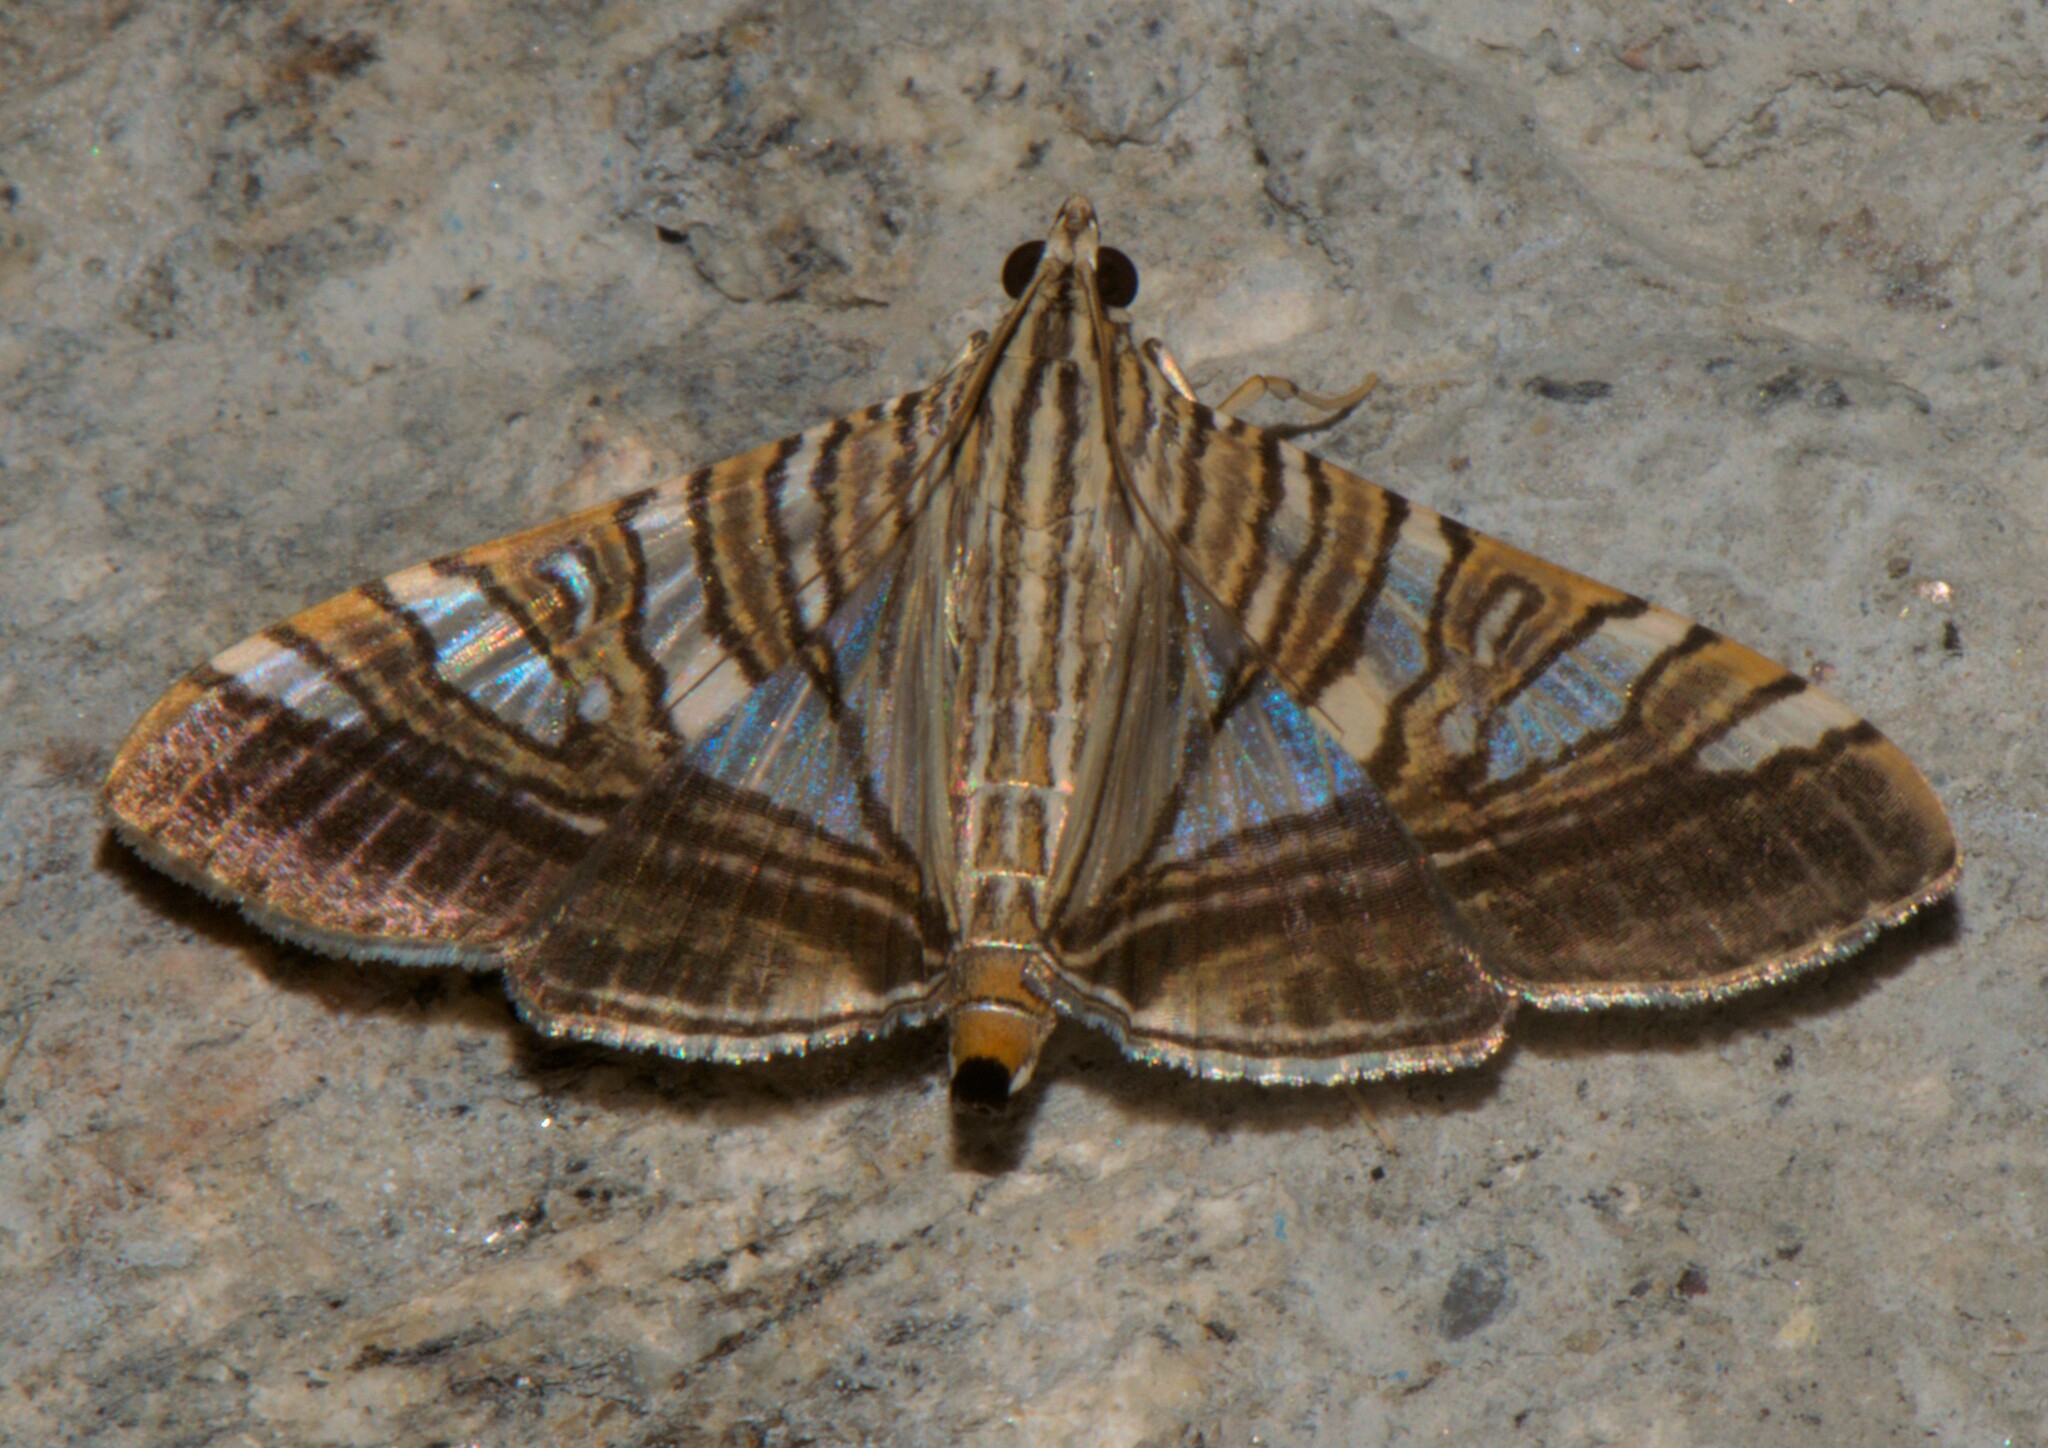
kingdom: Animalia
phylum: Arthropoda
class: Insecta
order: Lepidoptera
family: Crambidae
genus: Glyphodes
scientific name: Glyphodes stolalis
